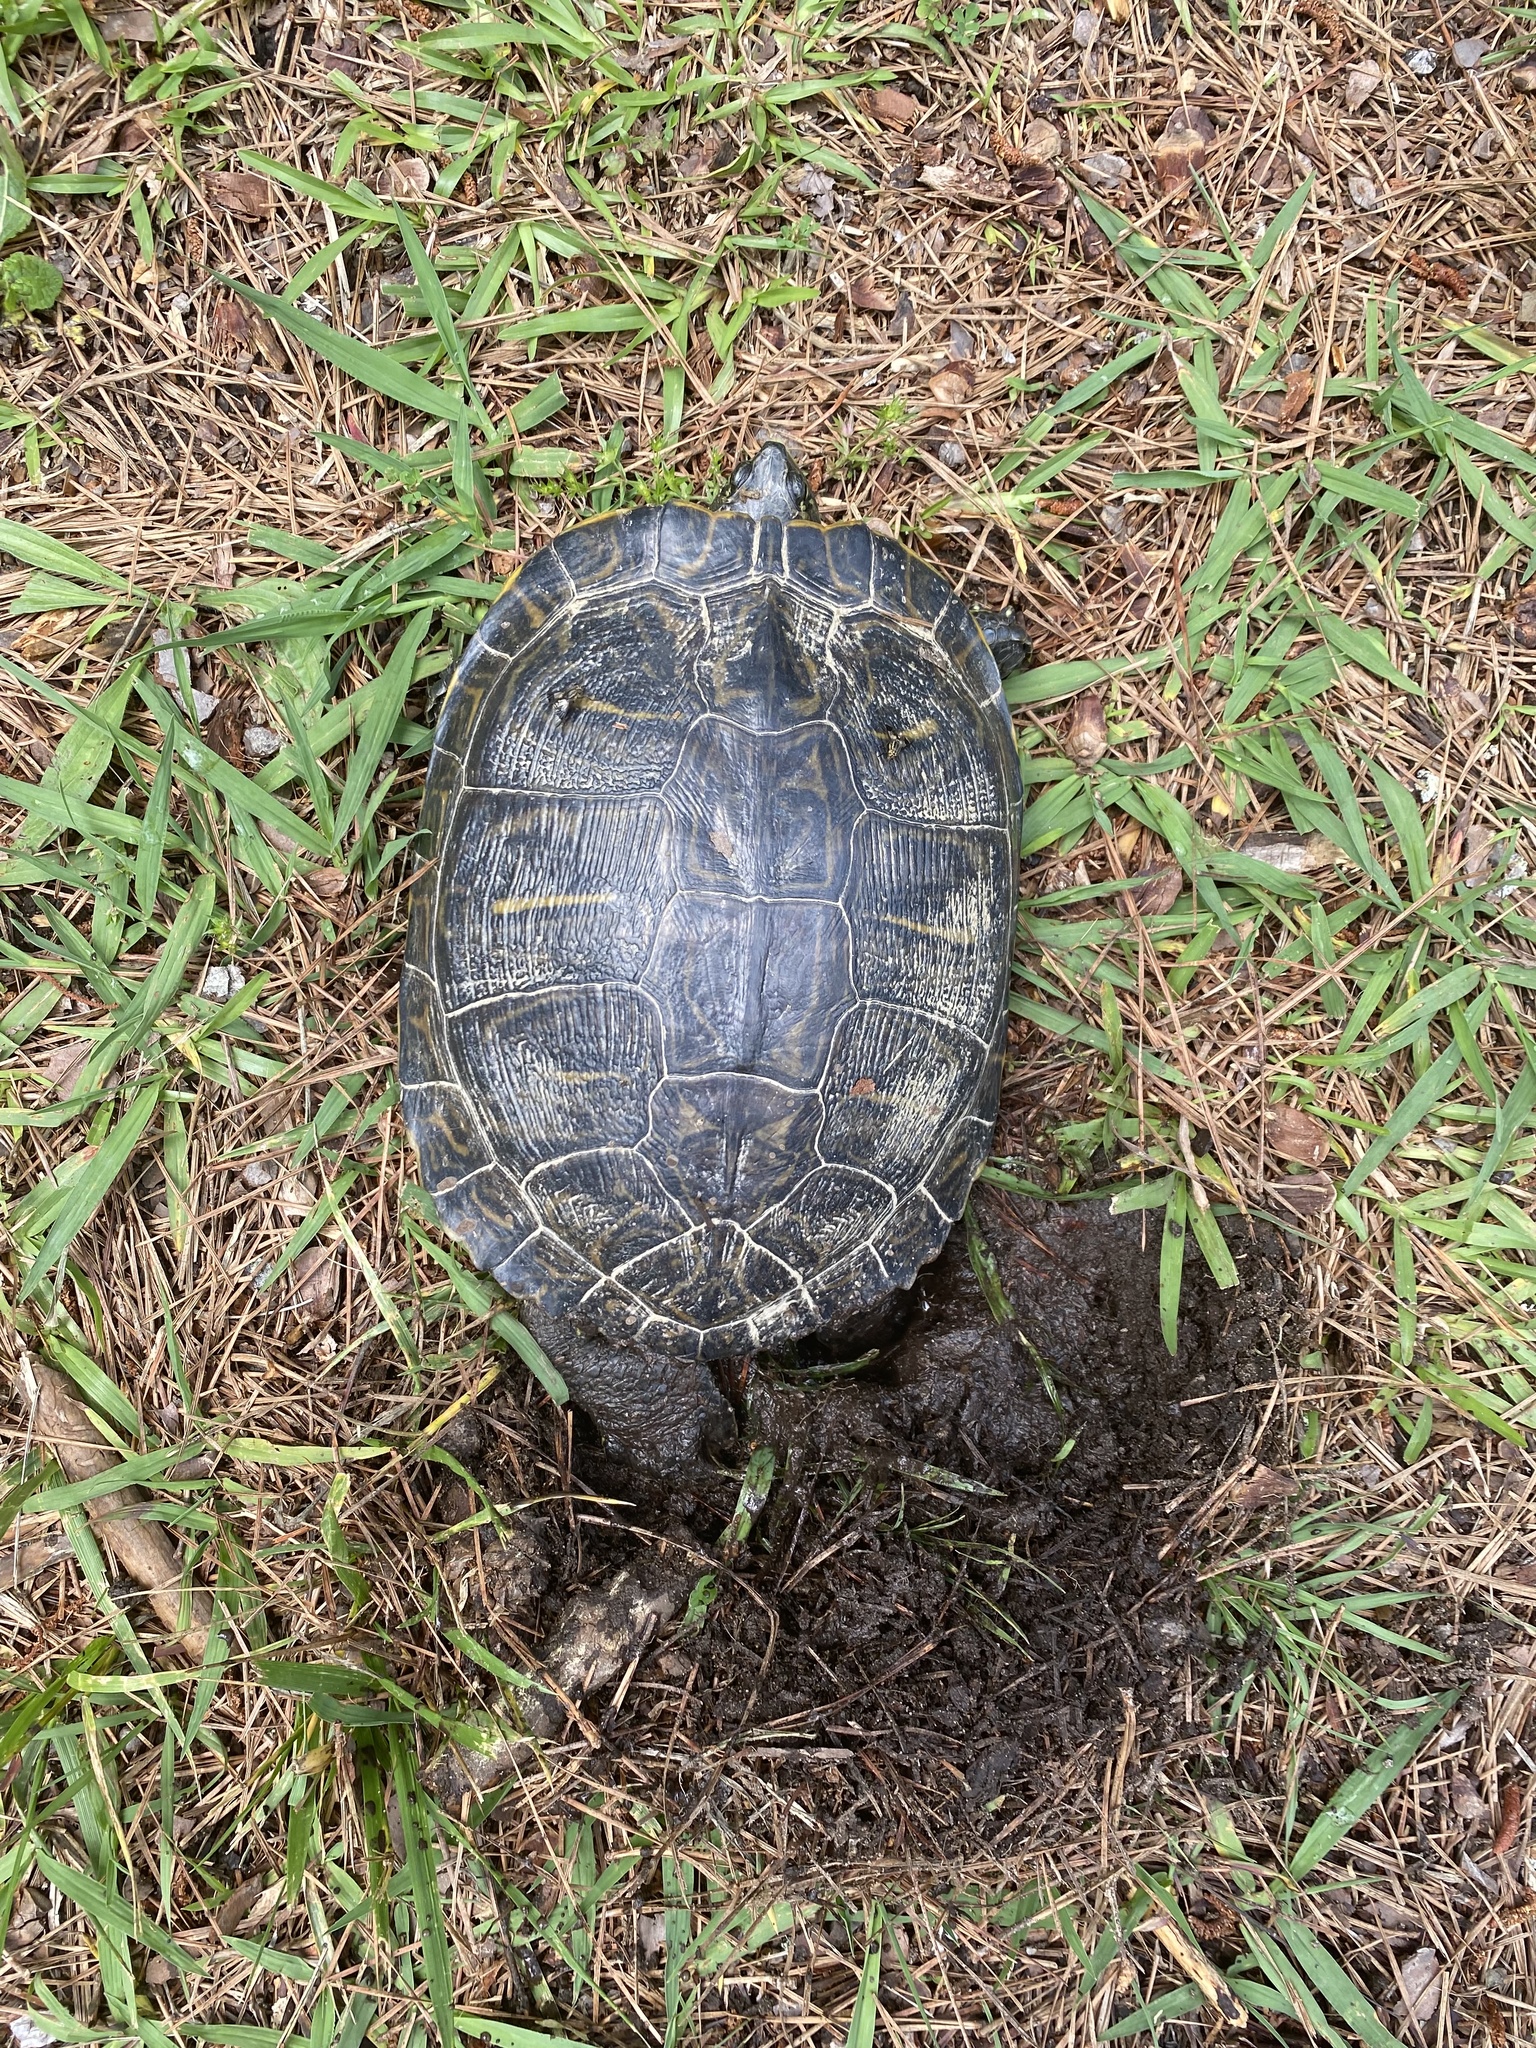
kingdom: Animalia
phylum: Chordata
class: Testudines
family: Emydidae
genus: Trachemys
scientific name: Trachemys scripta
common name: Slider
